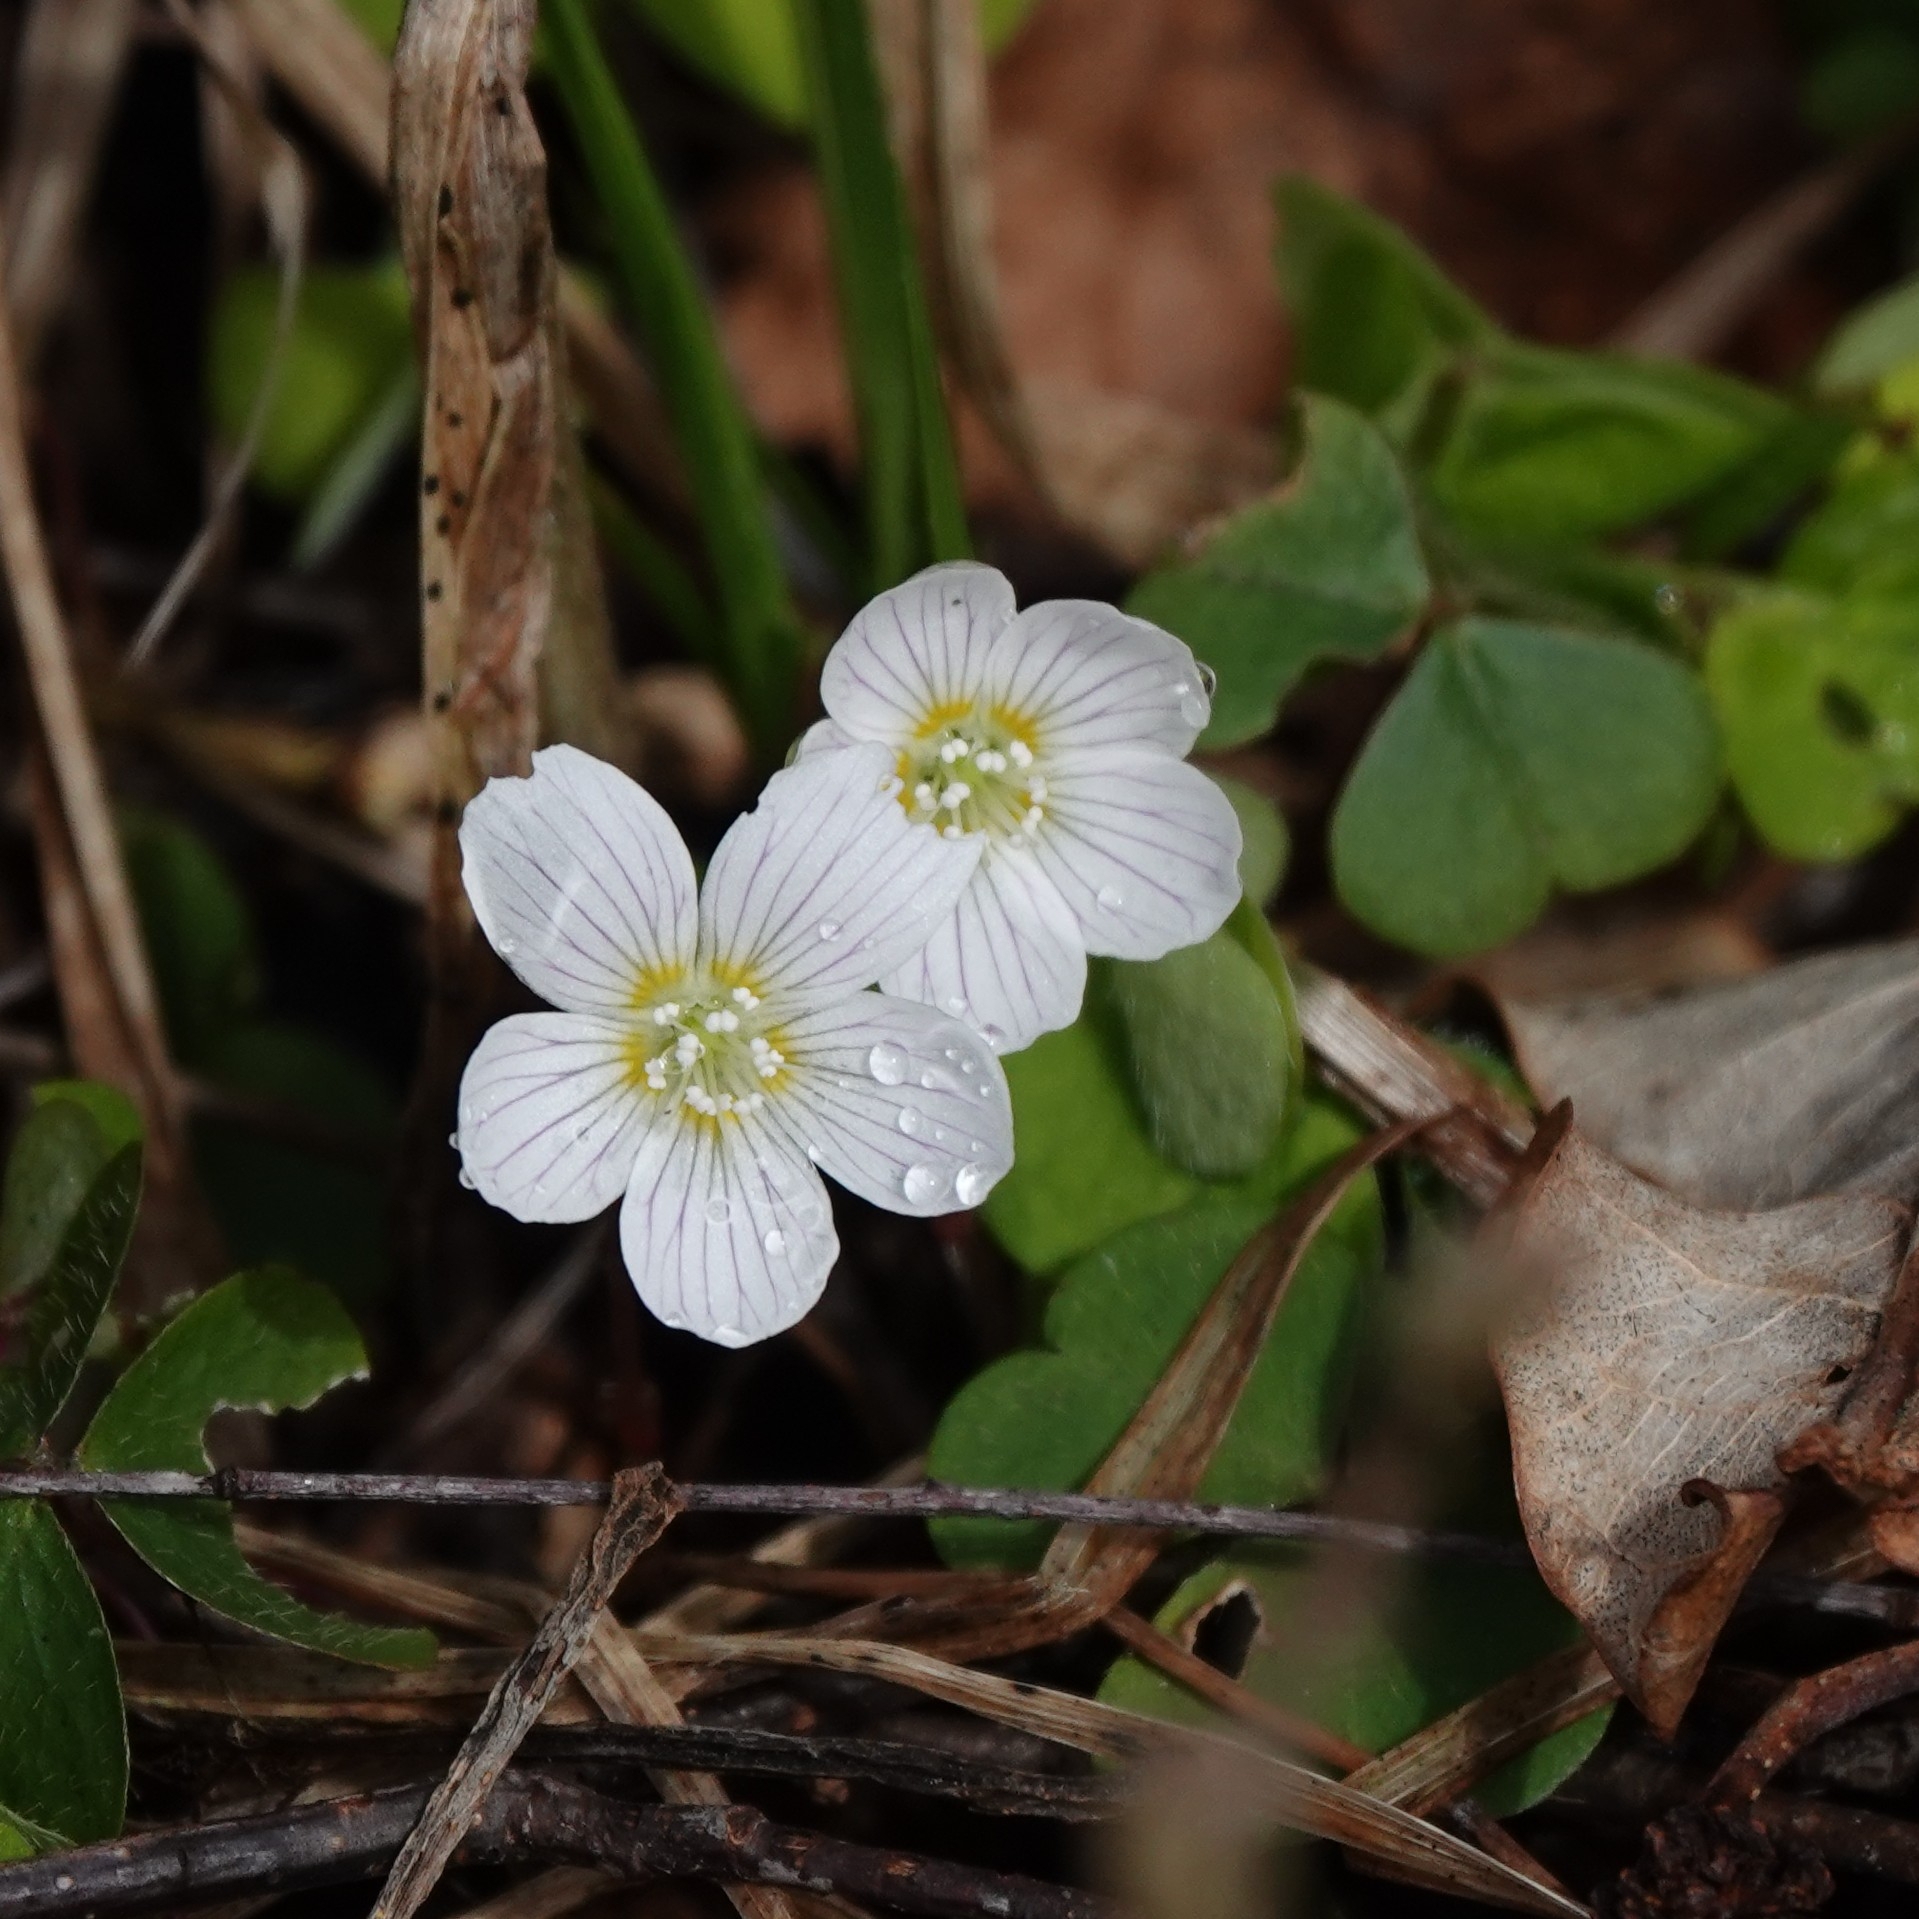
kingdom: Plantae
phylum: Tracheophyta
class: Magnoliopsida
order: Oxalidales
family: Oxalidaceae
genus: Oxalis
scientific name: Oxalis acetosella
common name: Wood-sorrel
